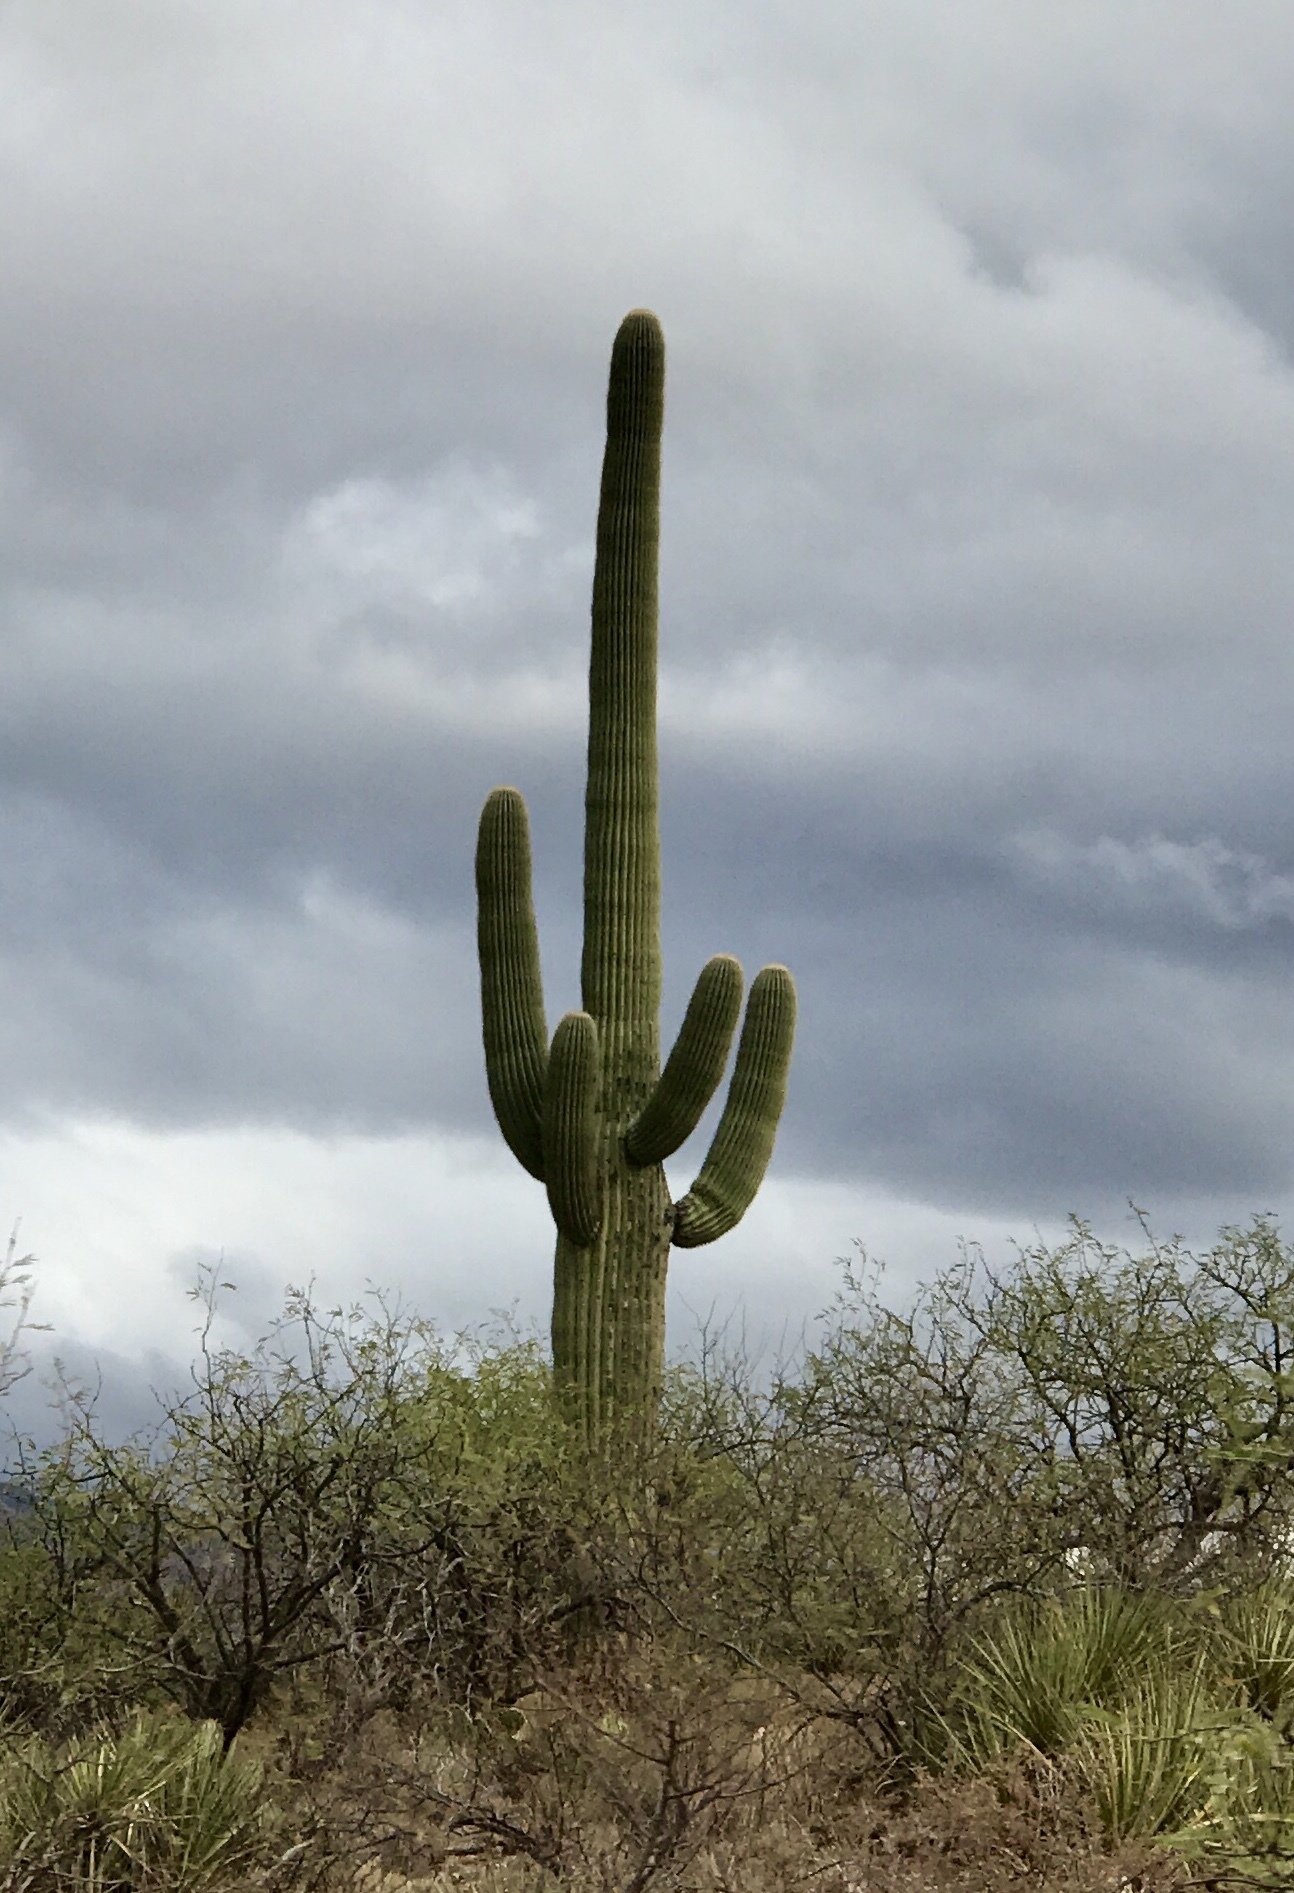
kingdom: Plantae
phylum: Tracheophyta
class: Magnoliopsida
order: Caryophyllales
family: Cactaceae
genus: Carnegiea
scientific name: Carnegiea gigantea
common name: Saguaro
